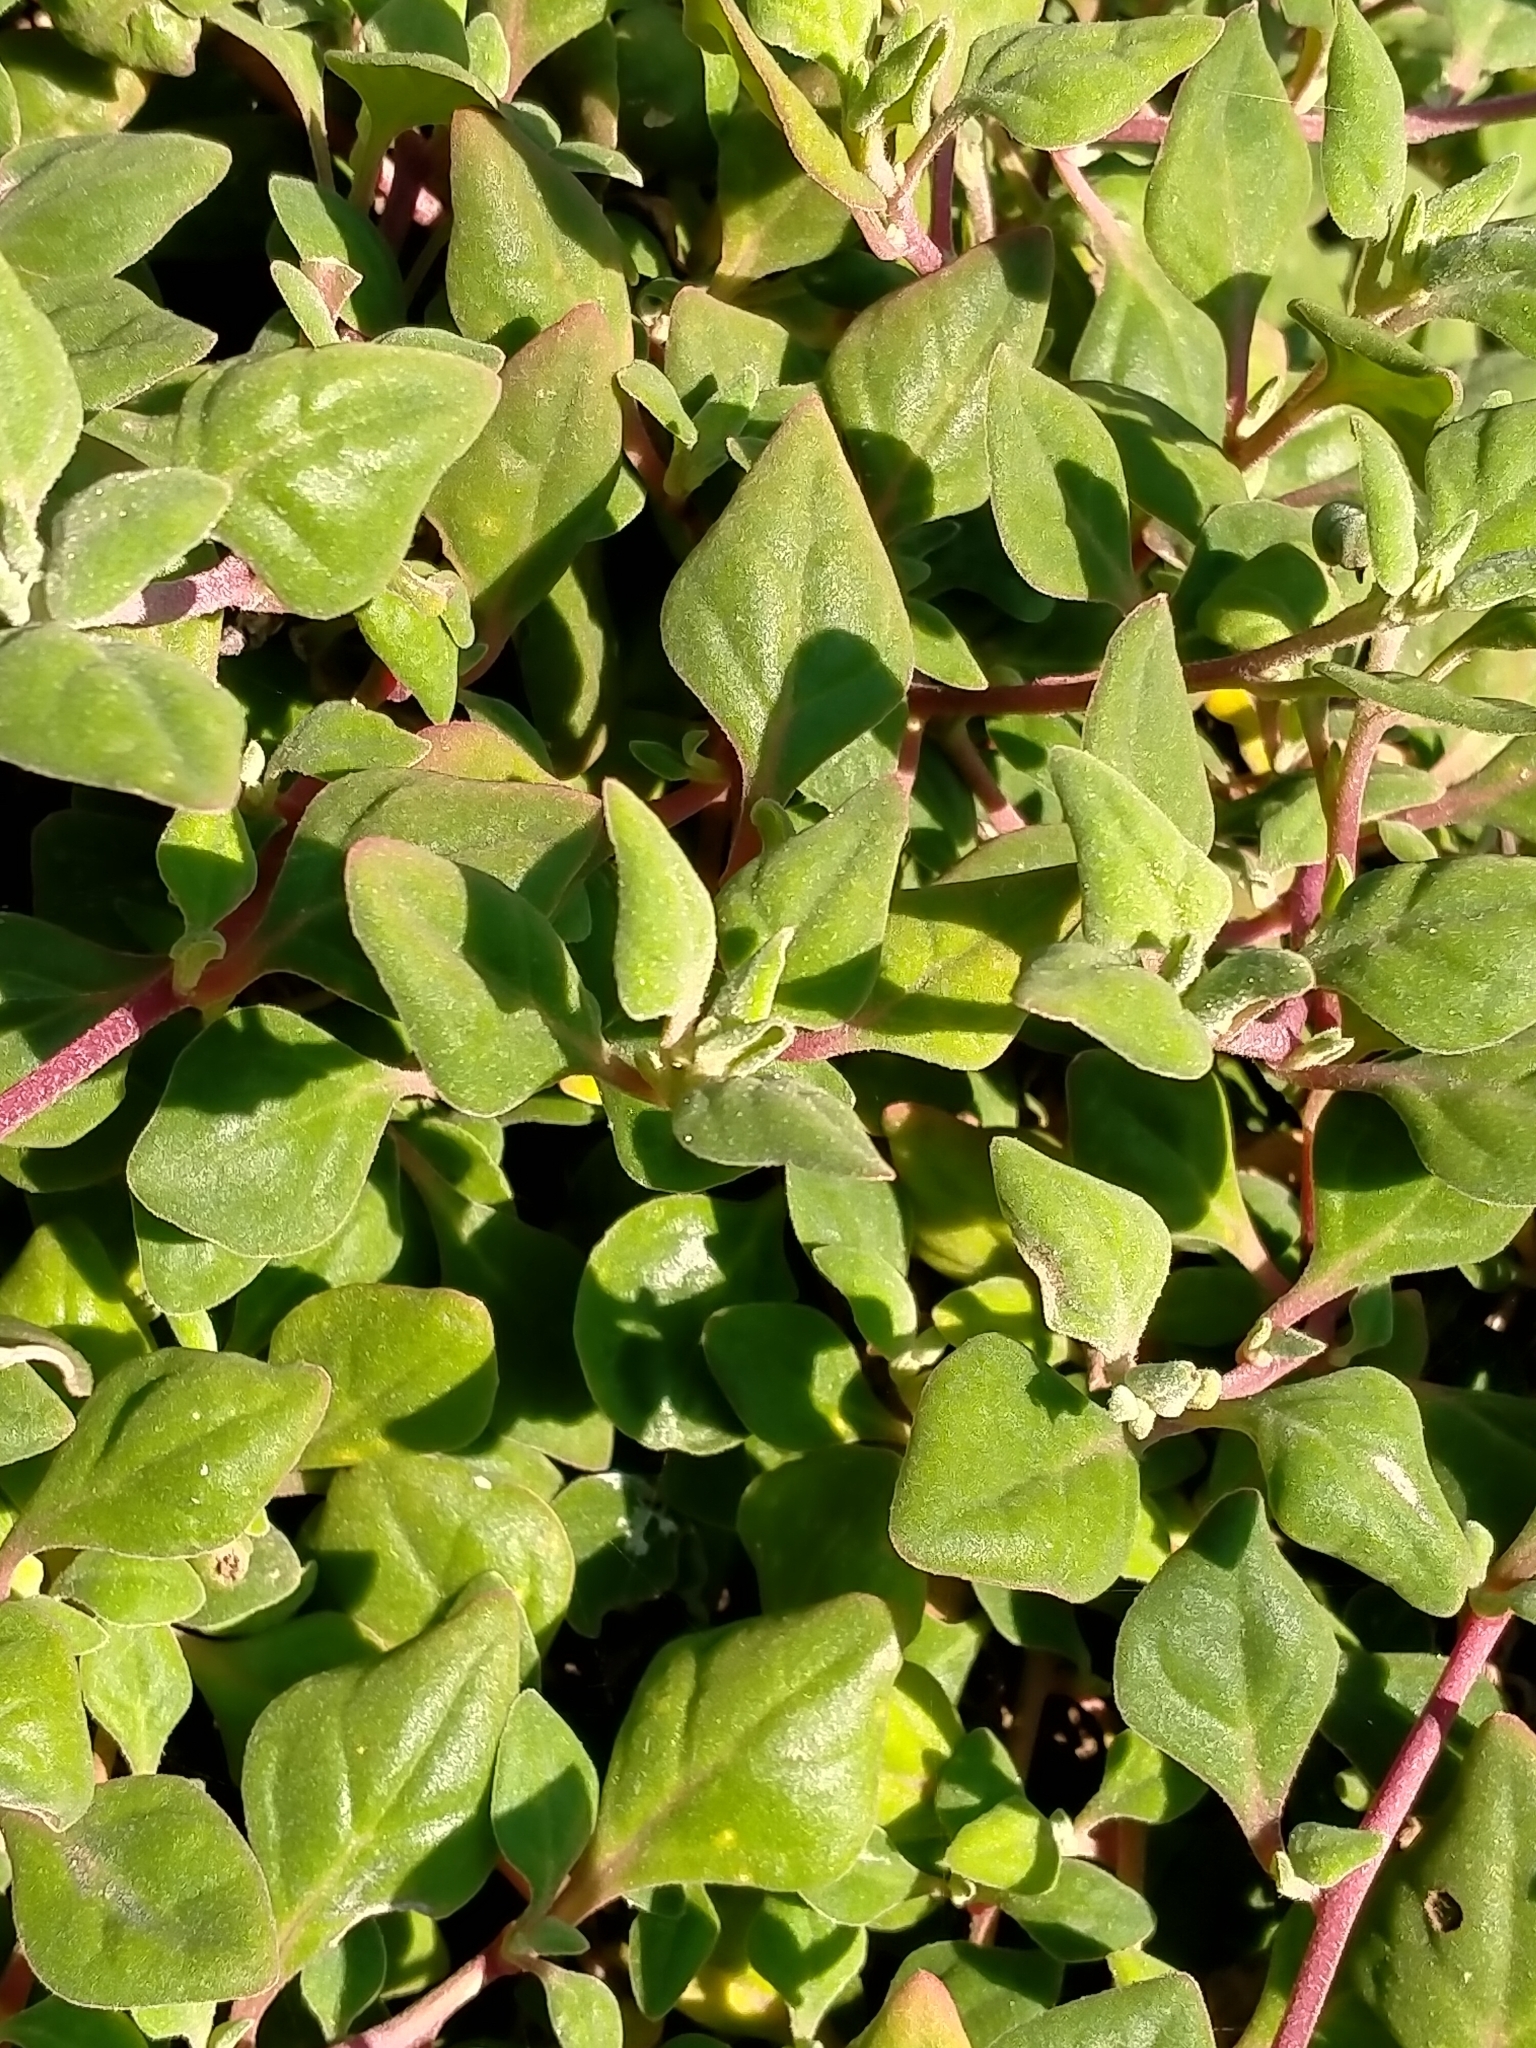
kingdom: Plantae
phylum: Tracheophyta
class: Magnoliopsida
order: Caryophyllales
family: Aizoaceae
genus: Tetragonia
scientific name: Tetragonia tetragonoides
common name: New zealand-spinach
